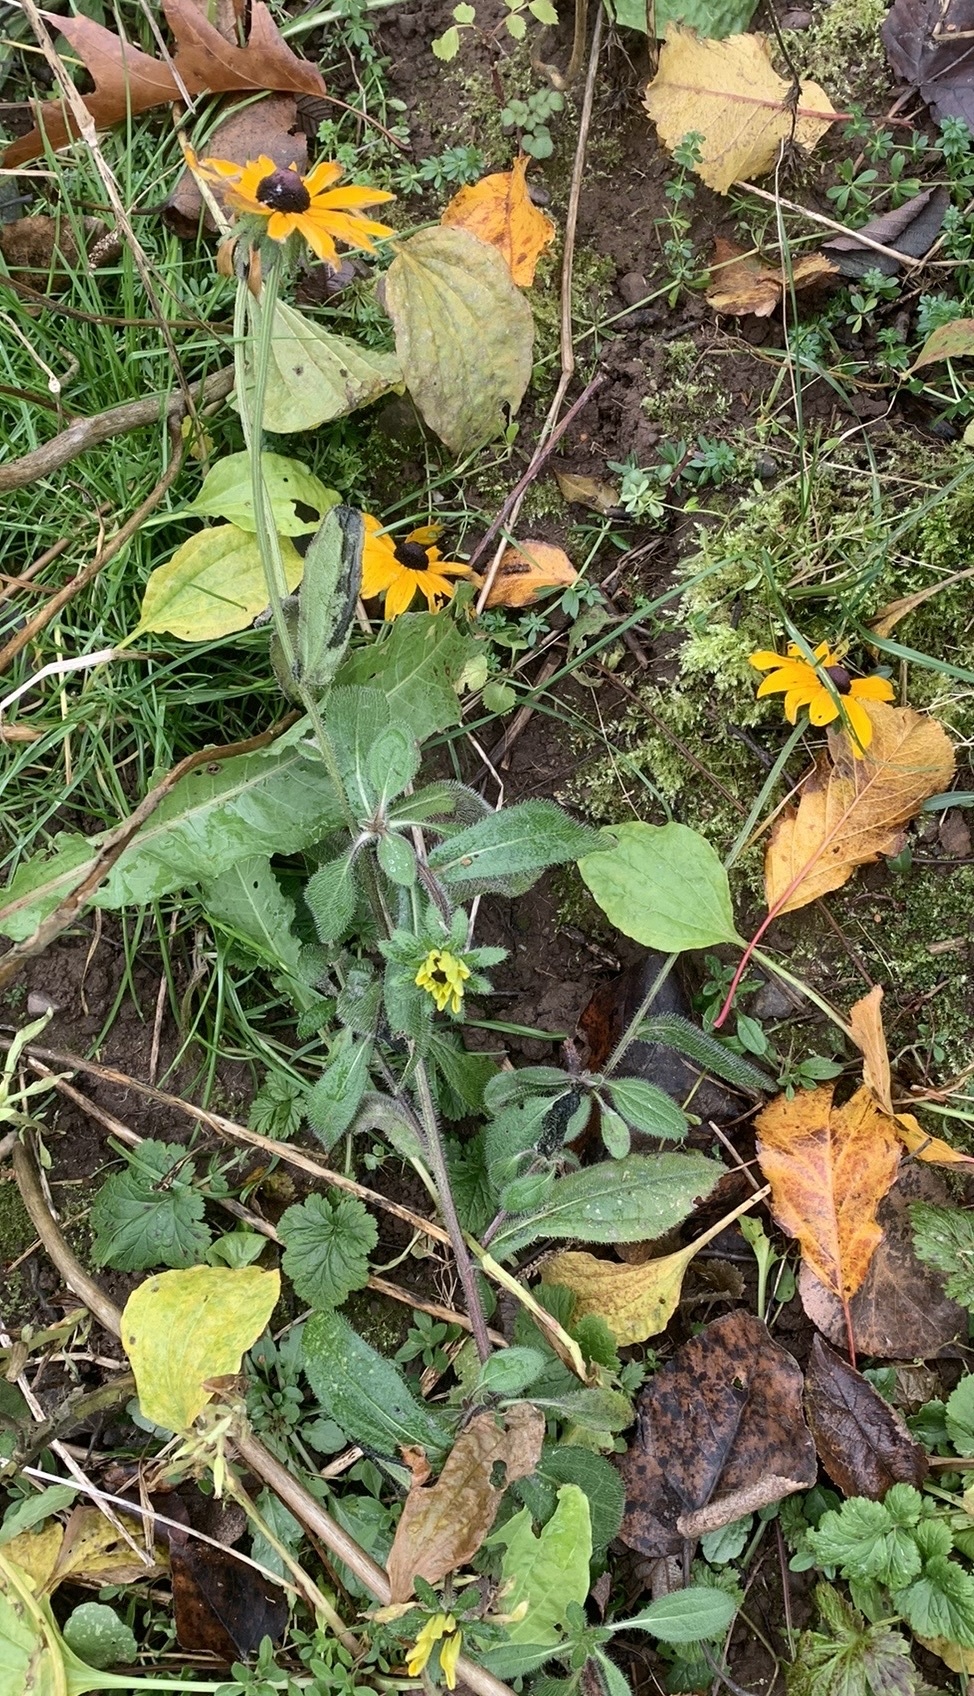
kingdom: Plantae
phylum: Tracheophyta
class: Magnoliopsida
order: Asterales
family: Asteraceae
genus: Rudbeckia
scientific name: Rudbeckia hirta
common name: Black-eyed-susan
